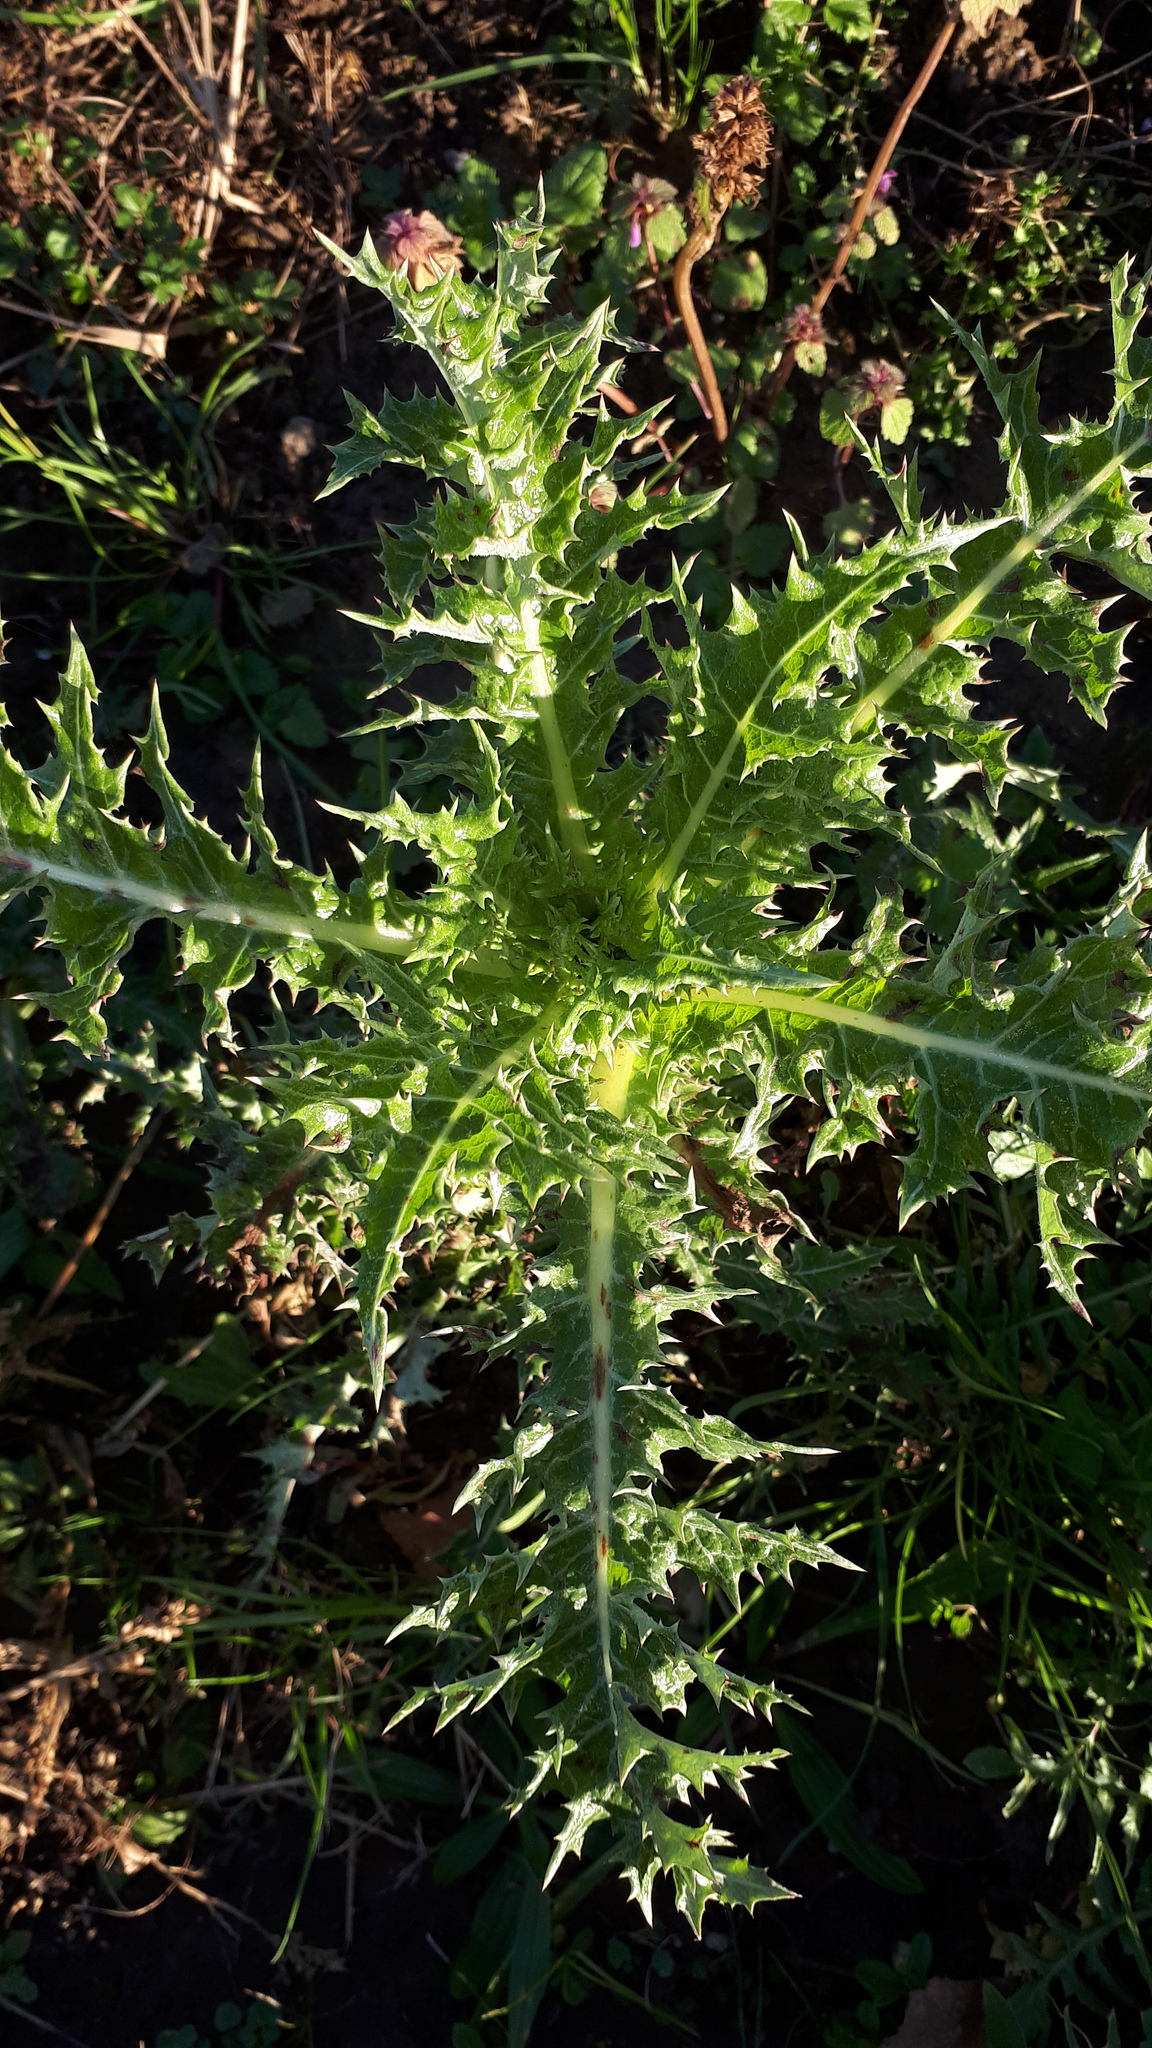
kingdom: Plantae
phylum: Tracheophyta
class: Magnoliopsida
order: Asterales
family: Asteraceae
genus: Sonchus
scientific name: Sonchus asper
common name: Prickly sow-thistle
